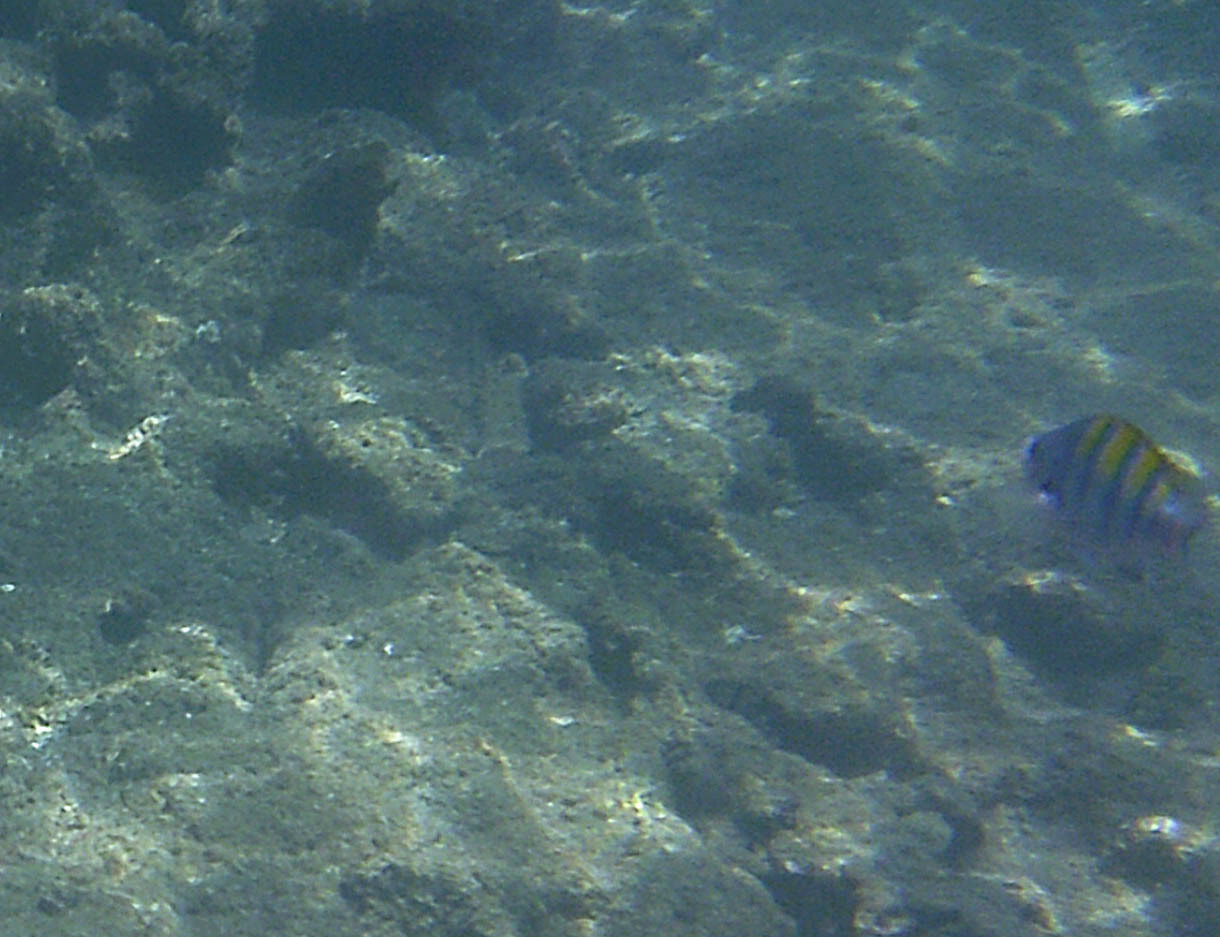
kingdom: Animalia
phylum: Chordata
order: Perciformes
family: Pomacentridae
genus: Abudefduf
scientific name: Abudefduf troschelii
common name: Panamic sergeant major
